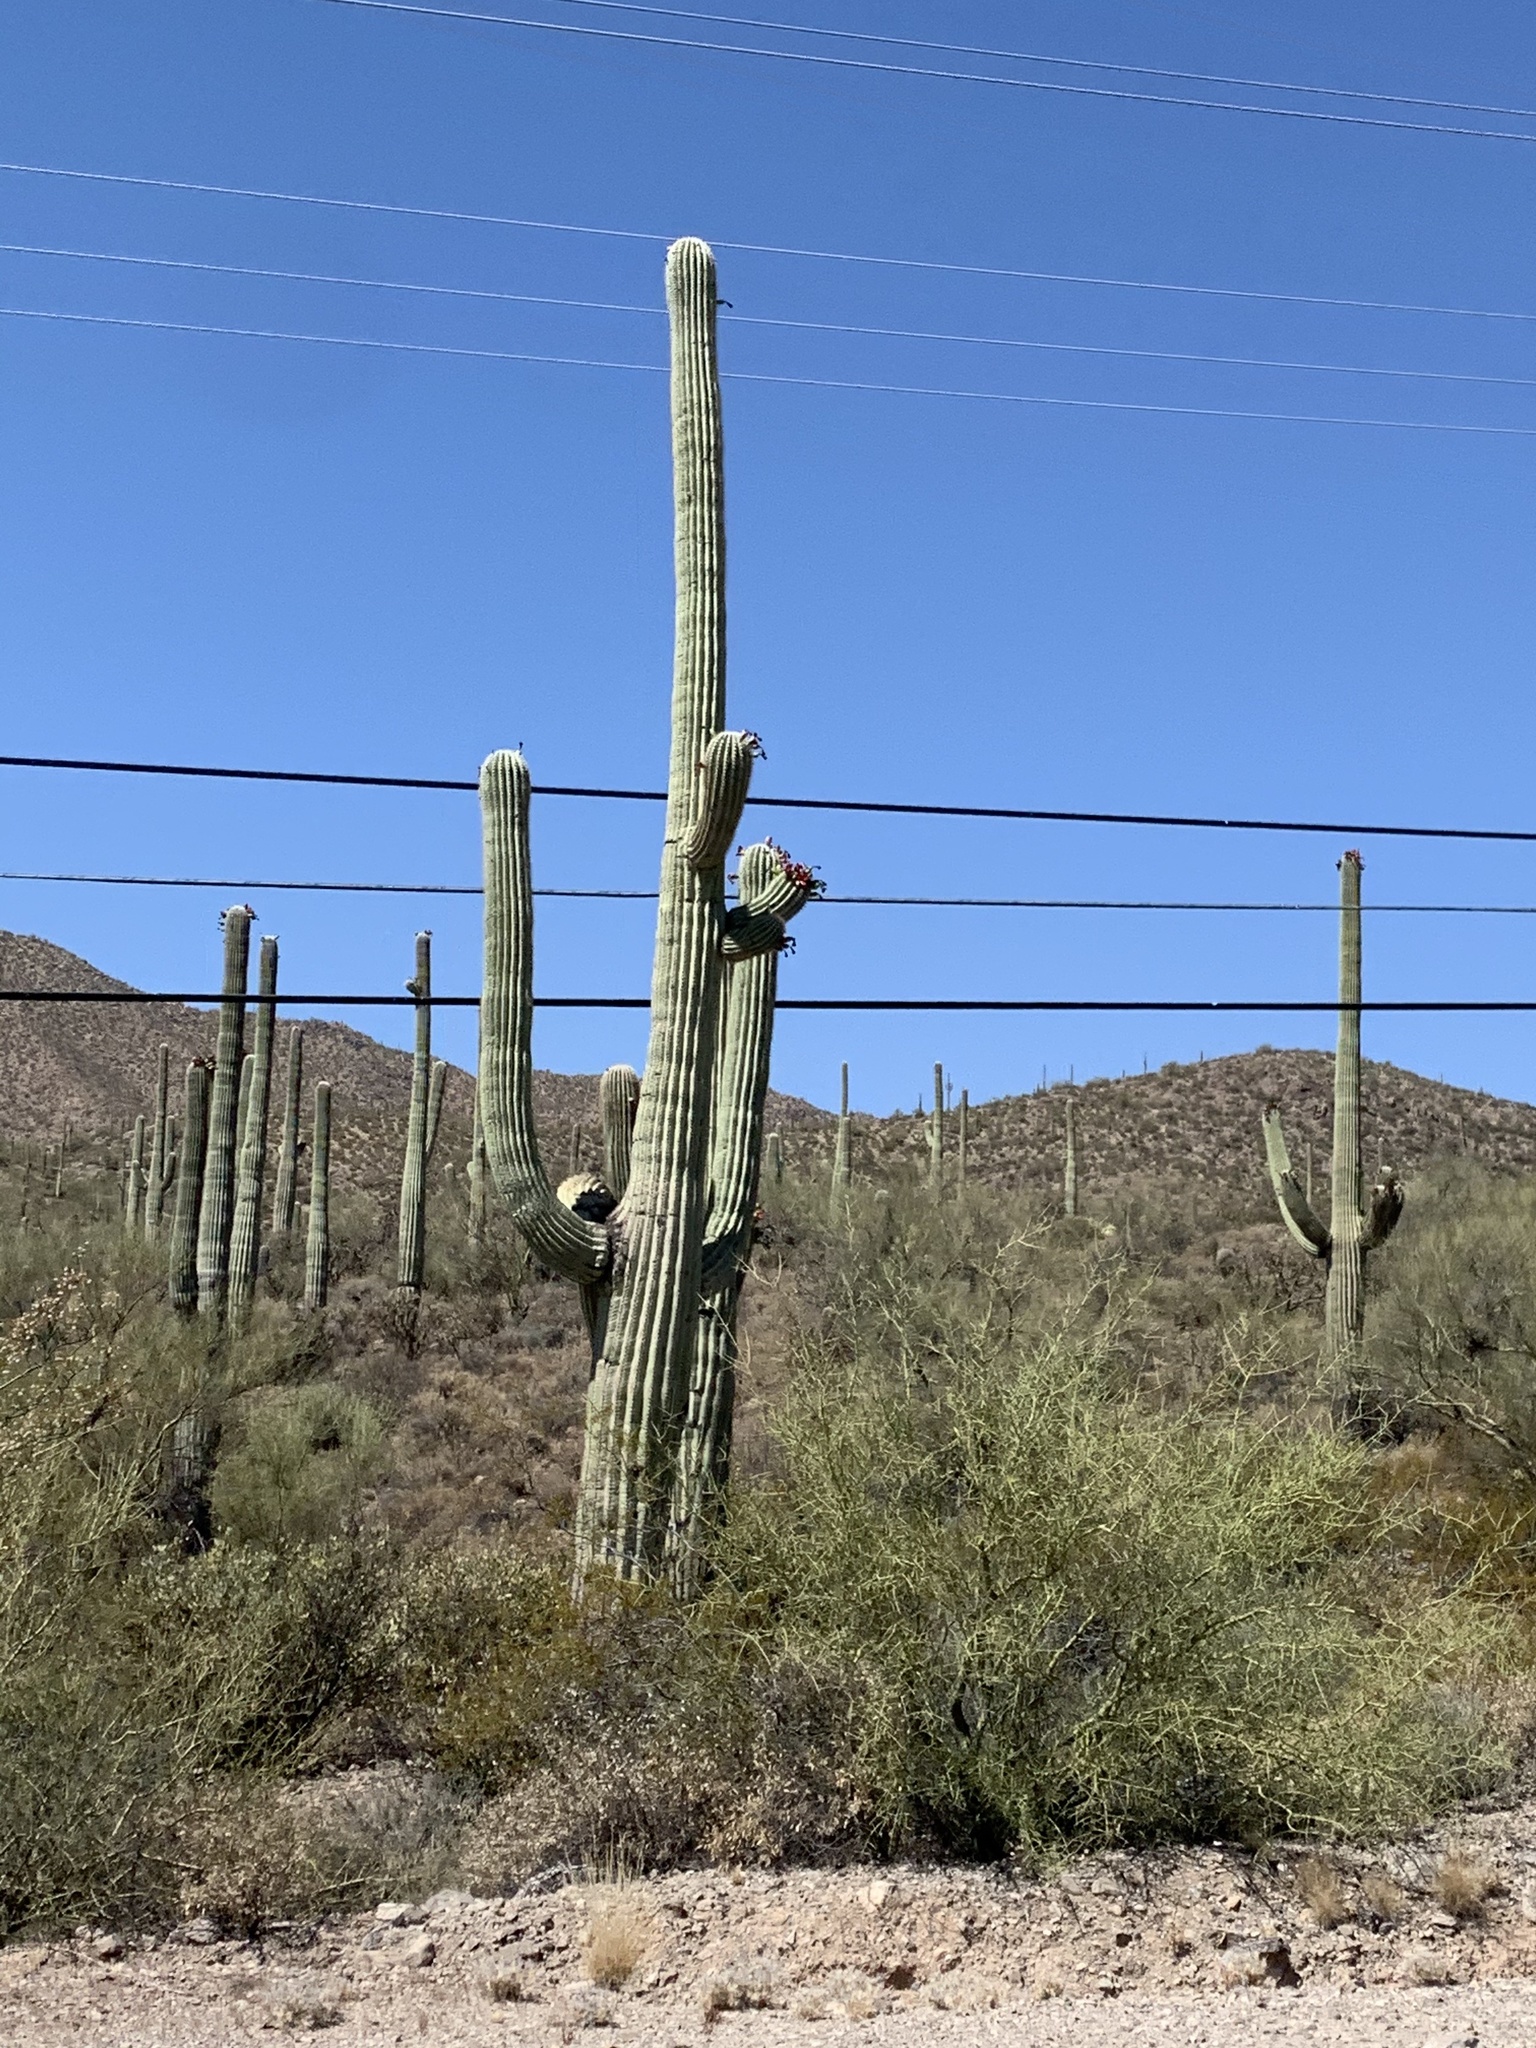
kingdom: Plantae
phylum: Tracheophyta
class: Magnoliopsida
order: Caryophyllales
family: Cactaceae
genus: Carnegiea
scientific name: Carnegiea gigantea
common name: Saguaro
